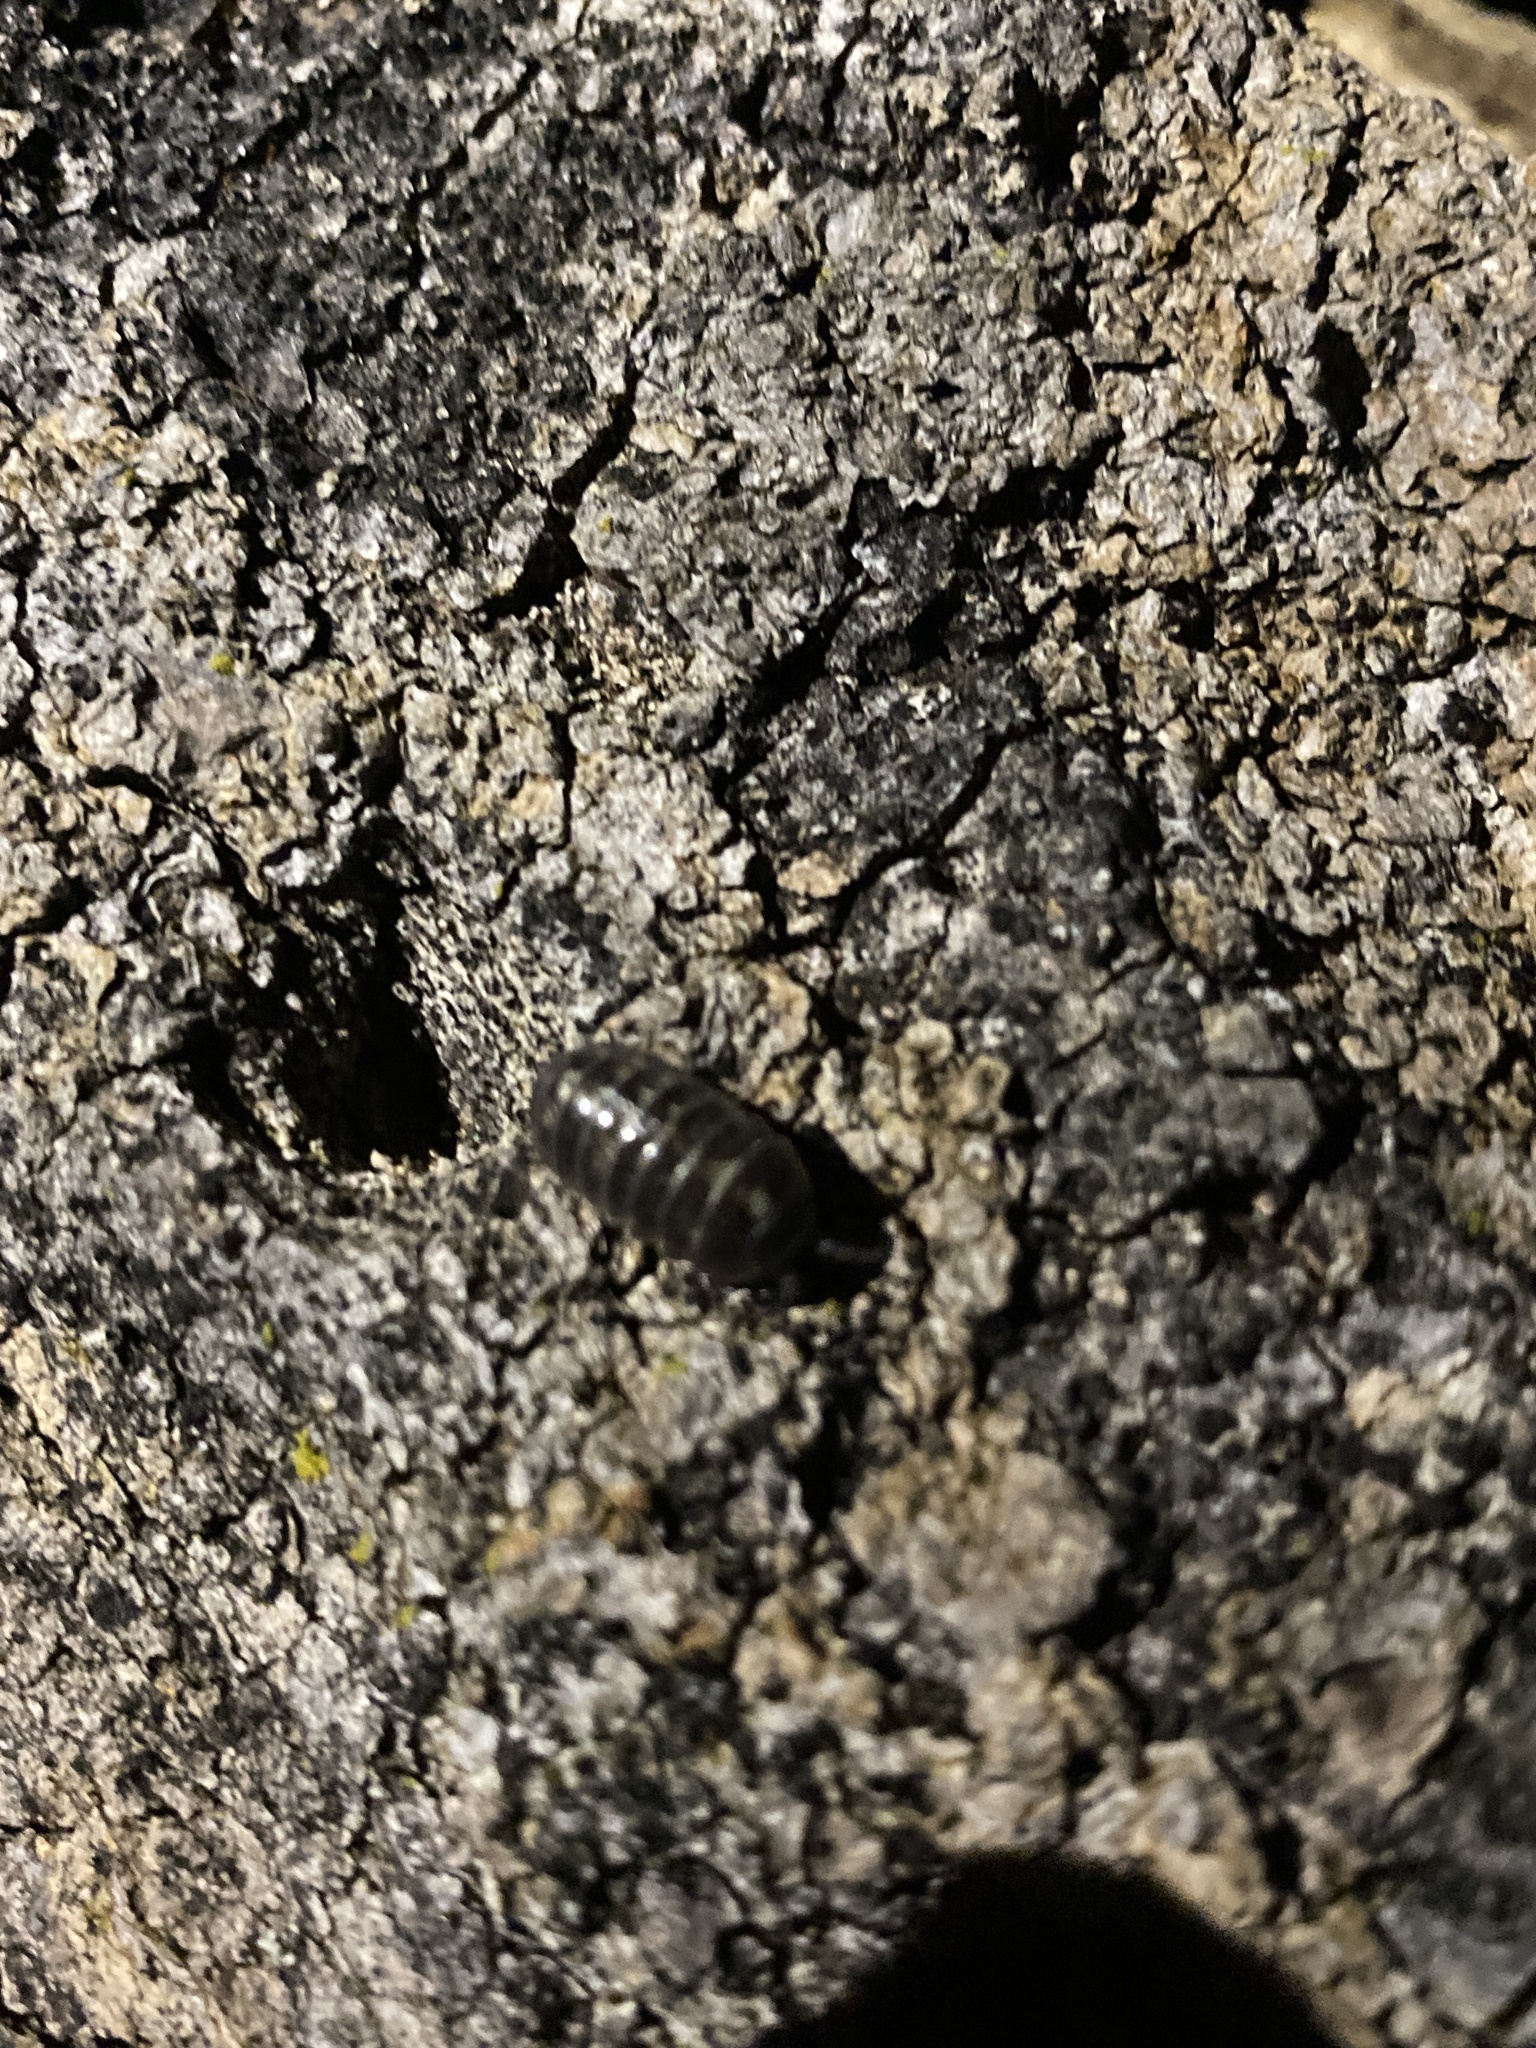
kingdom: Animalia
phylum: Arthropoda
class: Malacostraca
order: Isopoda
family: Armadillidiidae
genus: Armadillidium
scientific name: Armadillidium vulgare
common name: Common pill woodlouse
